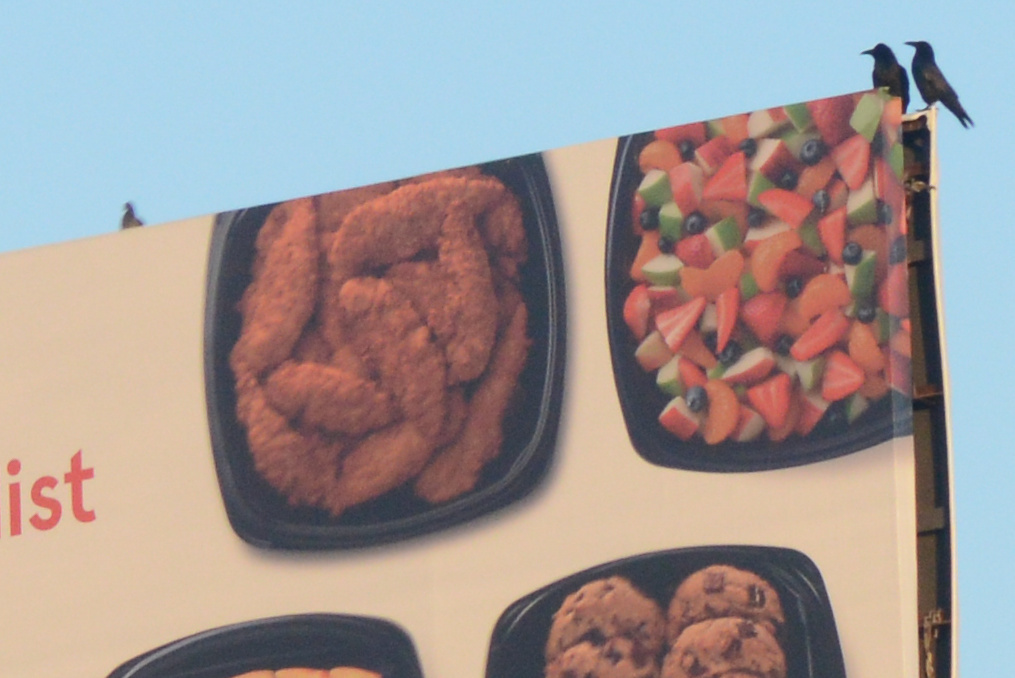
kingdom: Animalia
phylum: Chordata
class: Aves
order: Passeriformes
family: Corvidae
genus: Corvus
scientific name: Corvus brachyrhynchos
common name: American crow
